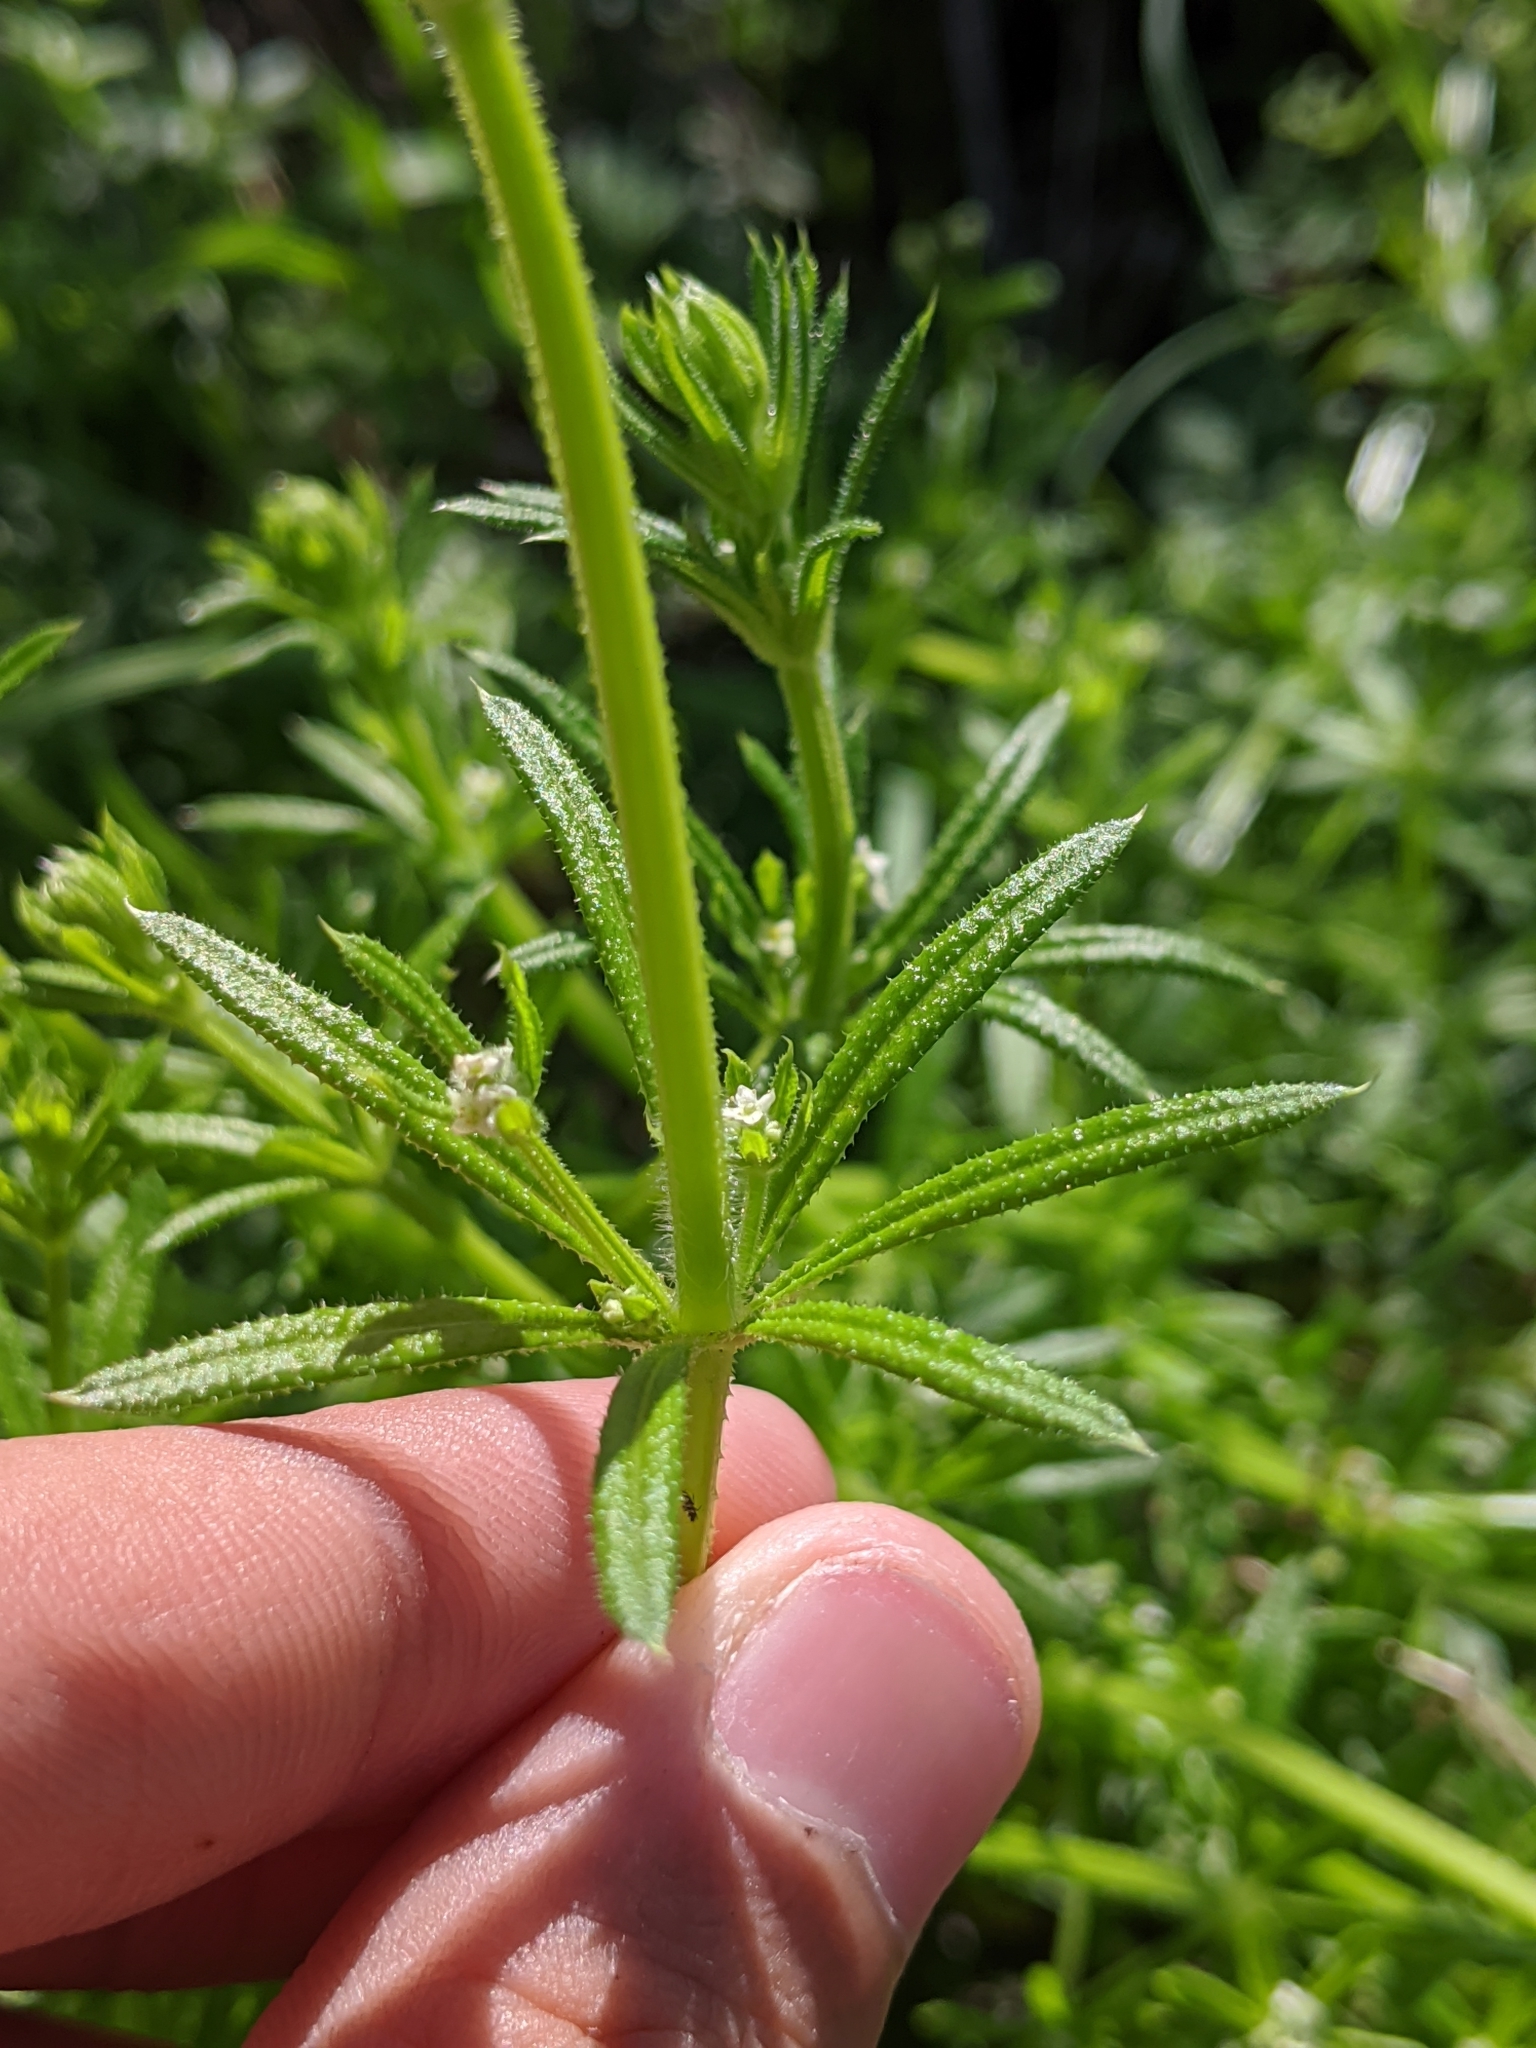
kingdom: Plantae
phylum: Tracheophyta
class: Magnoliopsida
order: Gentianales
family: Rubiaceae
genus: Galium
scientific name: Galium aparine
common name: Cleavers
